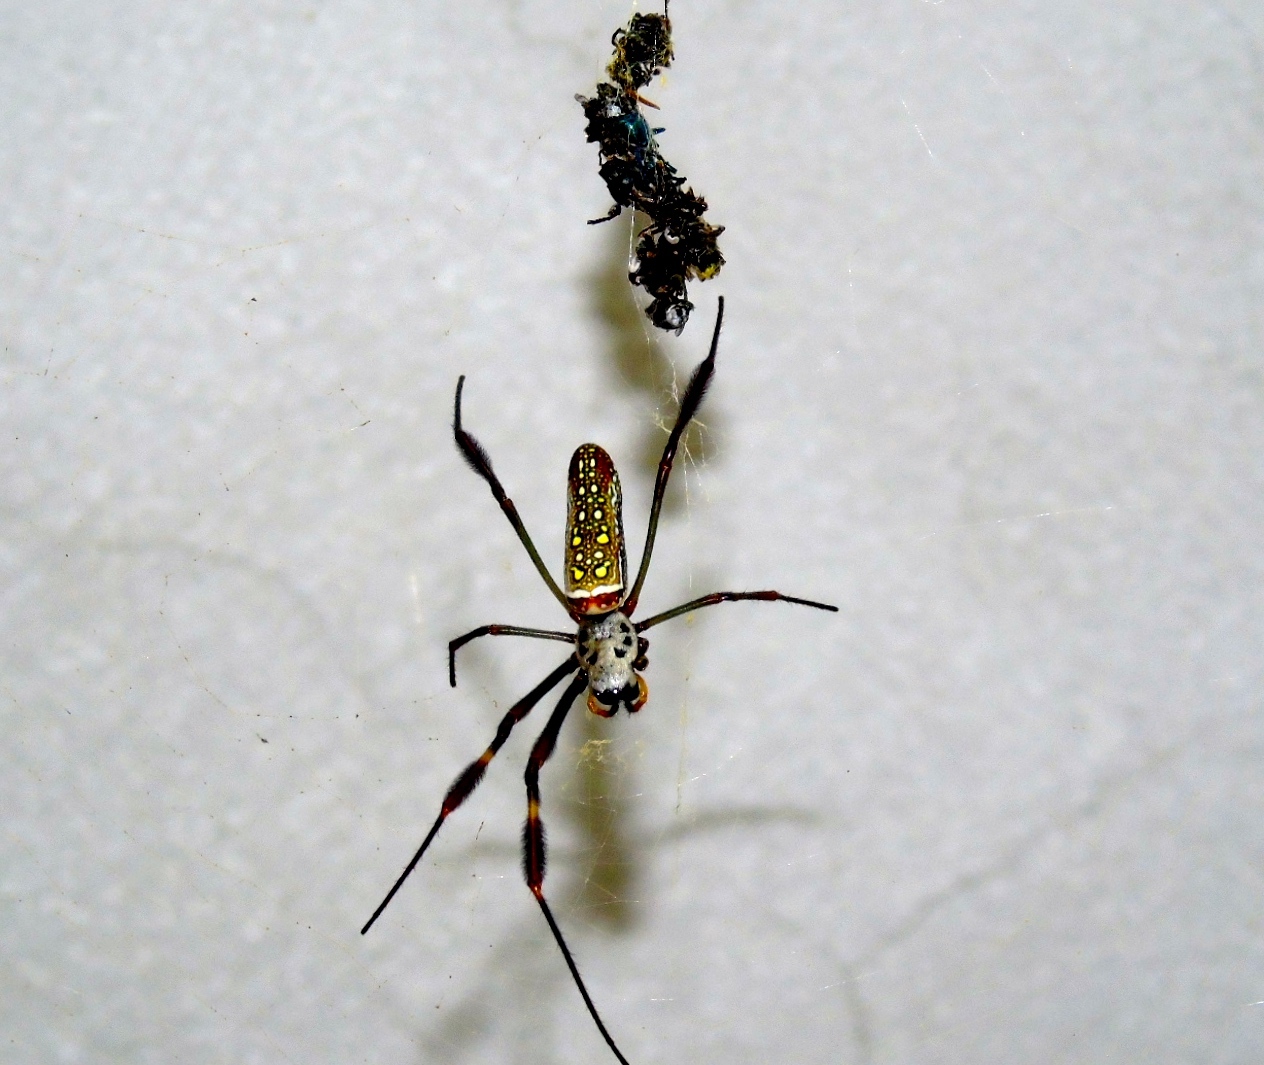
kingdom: Animalia
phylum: Arthropoda
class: Arachnida
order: Araneae
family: Araneidae
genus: Trichonephila
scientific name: Trichonephila clavipes
